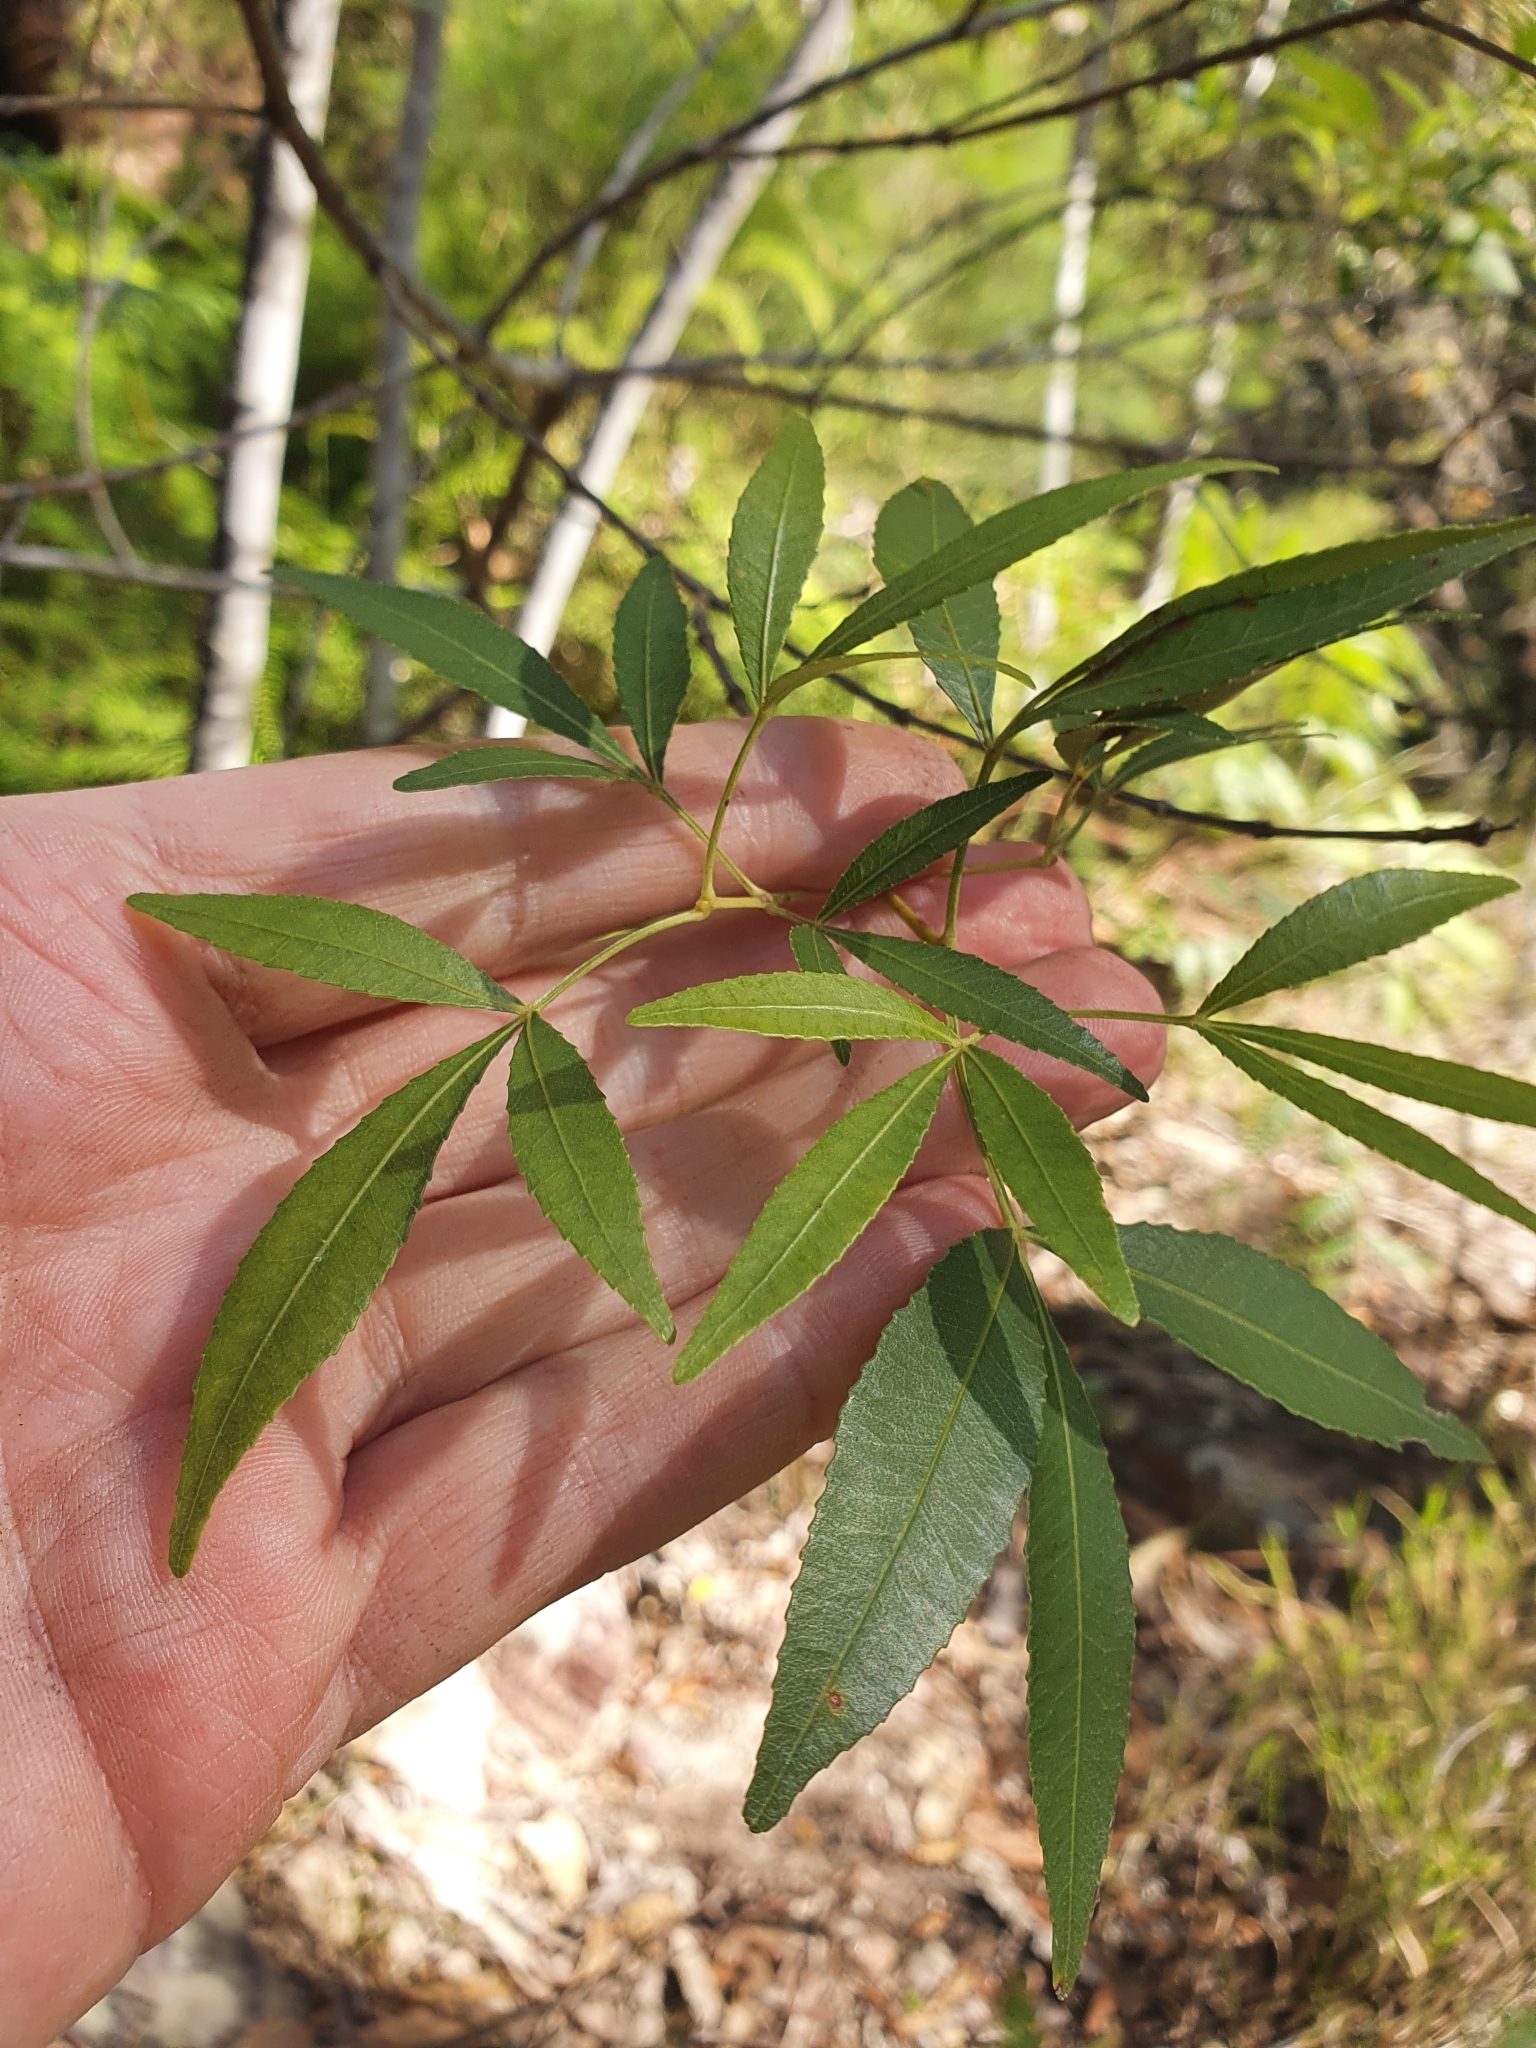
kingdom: Plantae
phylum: Tracheophyta
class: Magnoliopsida
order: Oxalidales
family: Cunoniaceae
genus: Ceratopetalum
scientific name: Ceratopetalum gummiferum
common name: Christmasbush
